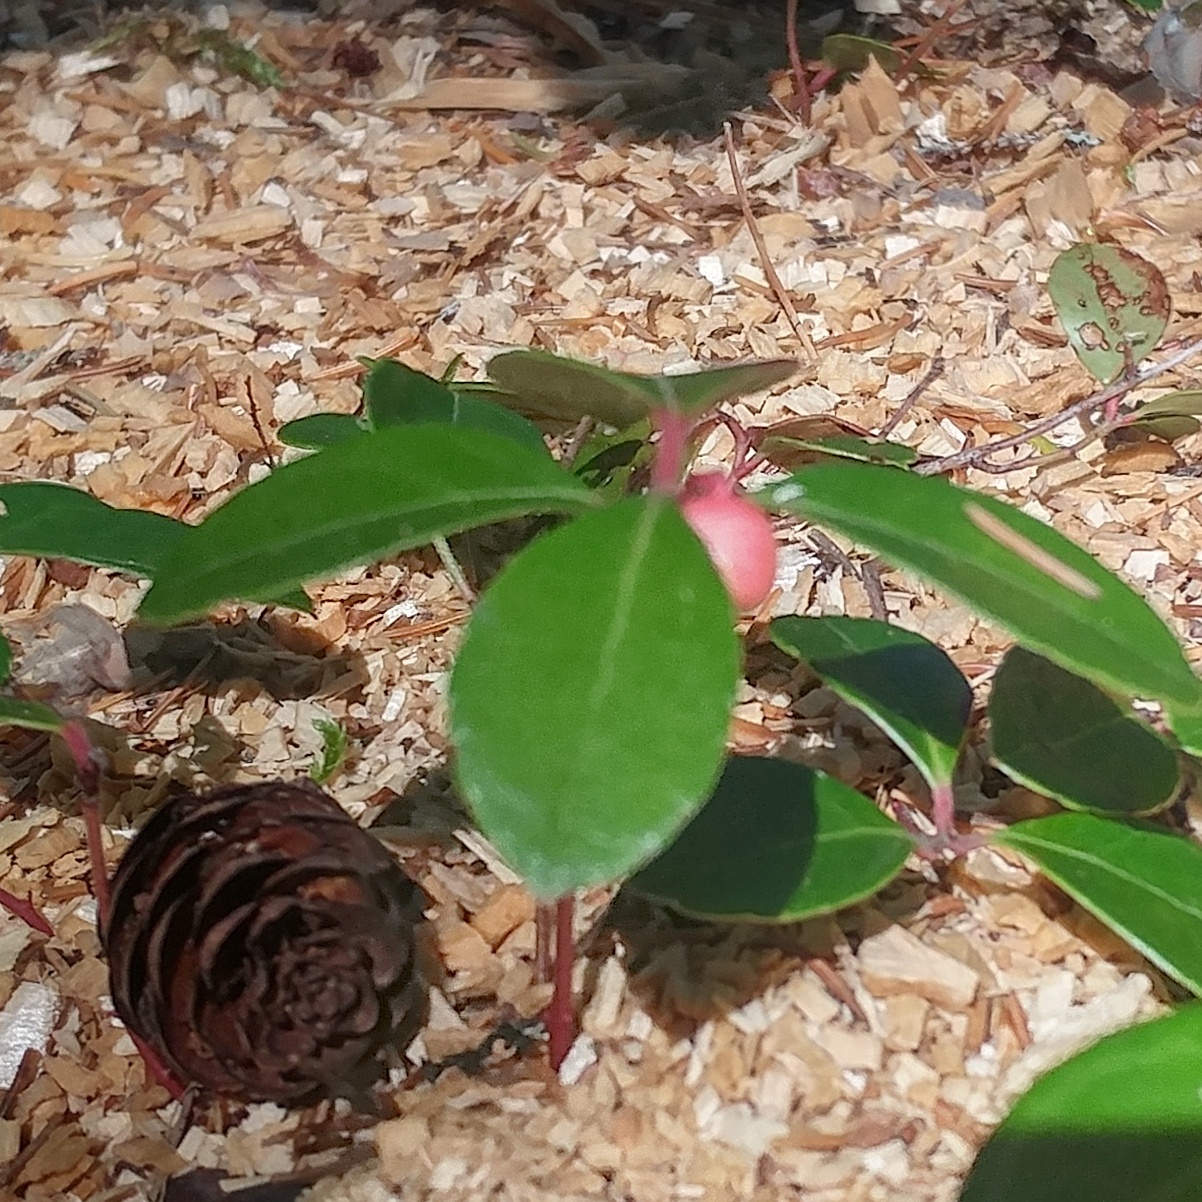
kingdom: Plantae
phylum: Tracheophyta
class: Magnoliopsida
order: Ericales
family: Ericaceae
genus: Gaultheria
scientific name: Gaultheria procumbens
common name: Checkerberry
